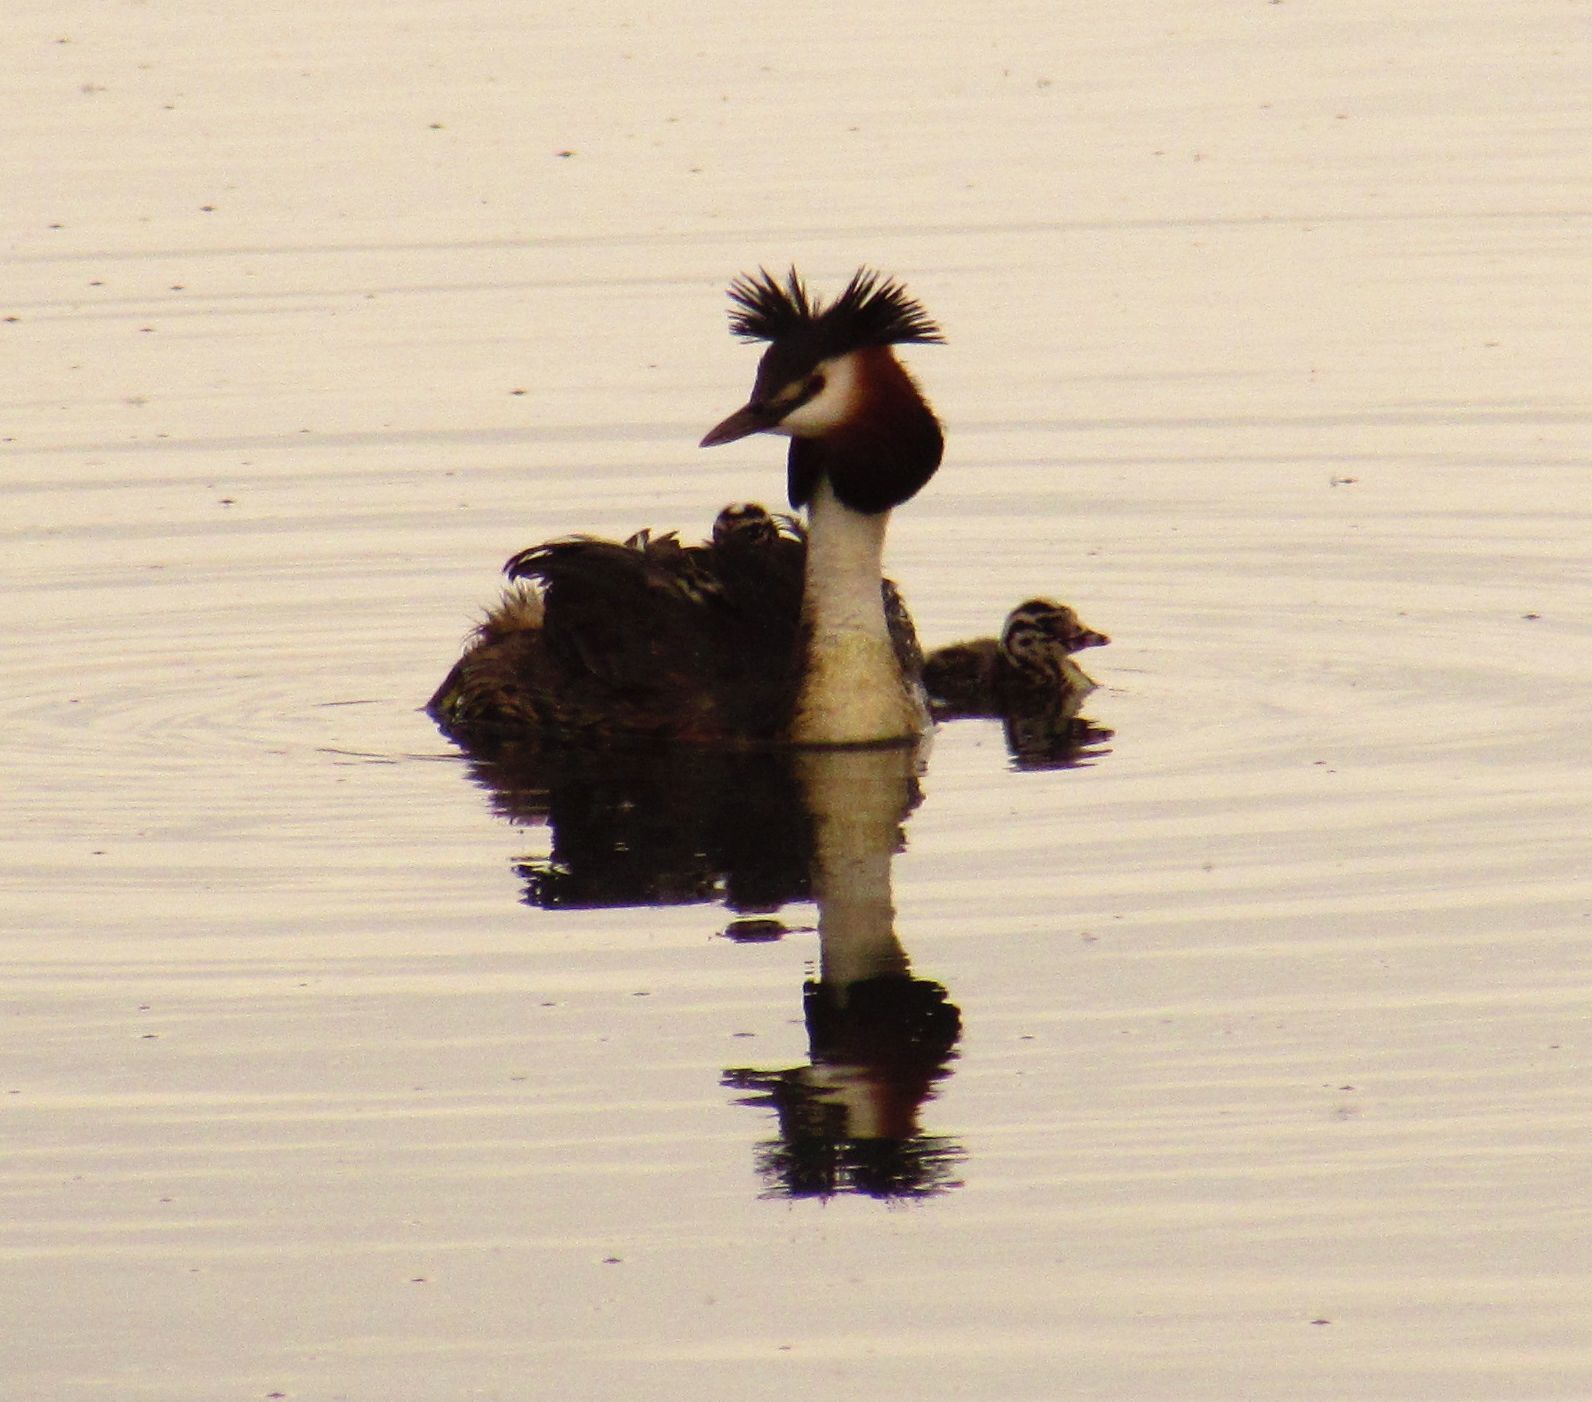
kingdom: Animalia
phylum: Chordata
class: Aves
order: Podicipediformes
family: Podicipedidae
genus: Podiceps
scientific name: Podiceps cristatus
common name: Great crested grebe
